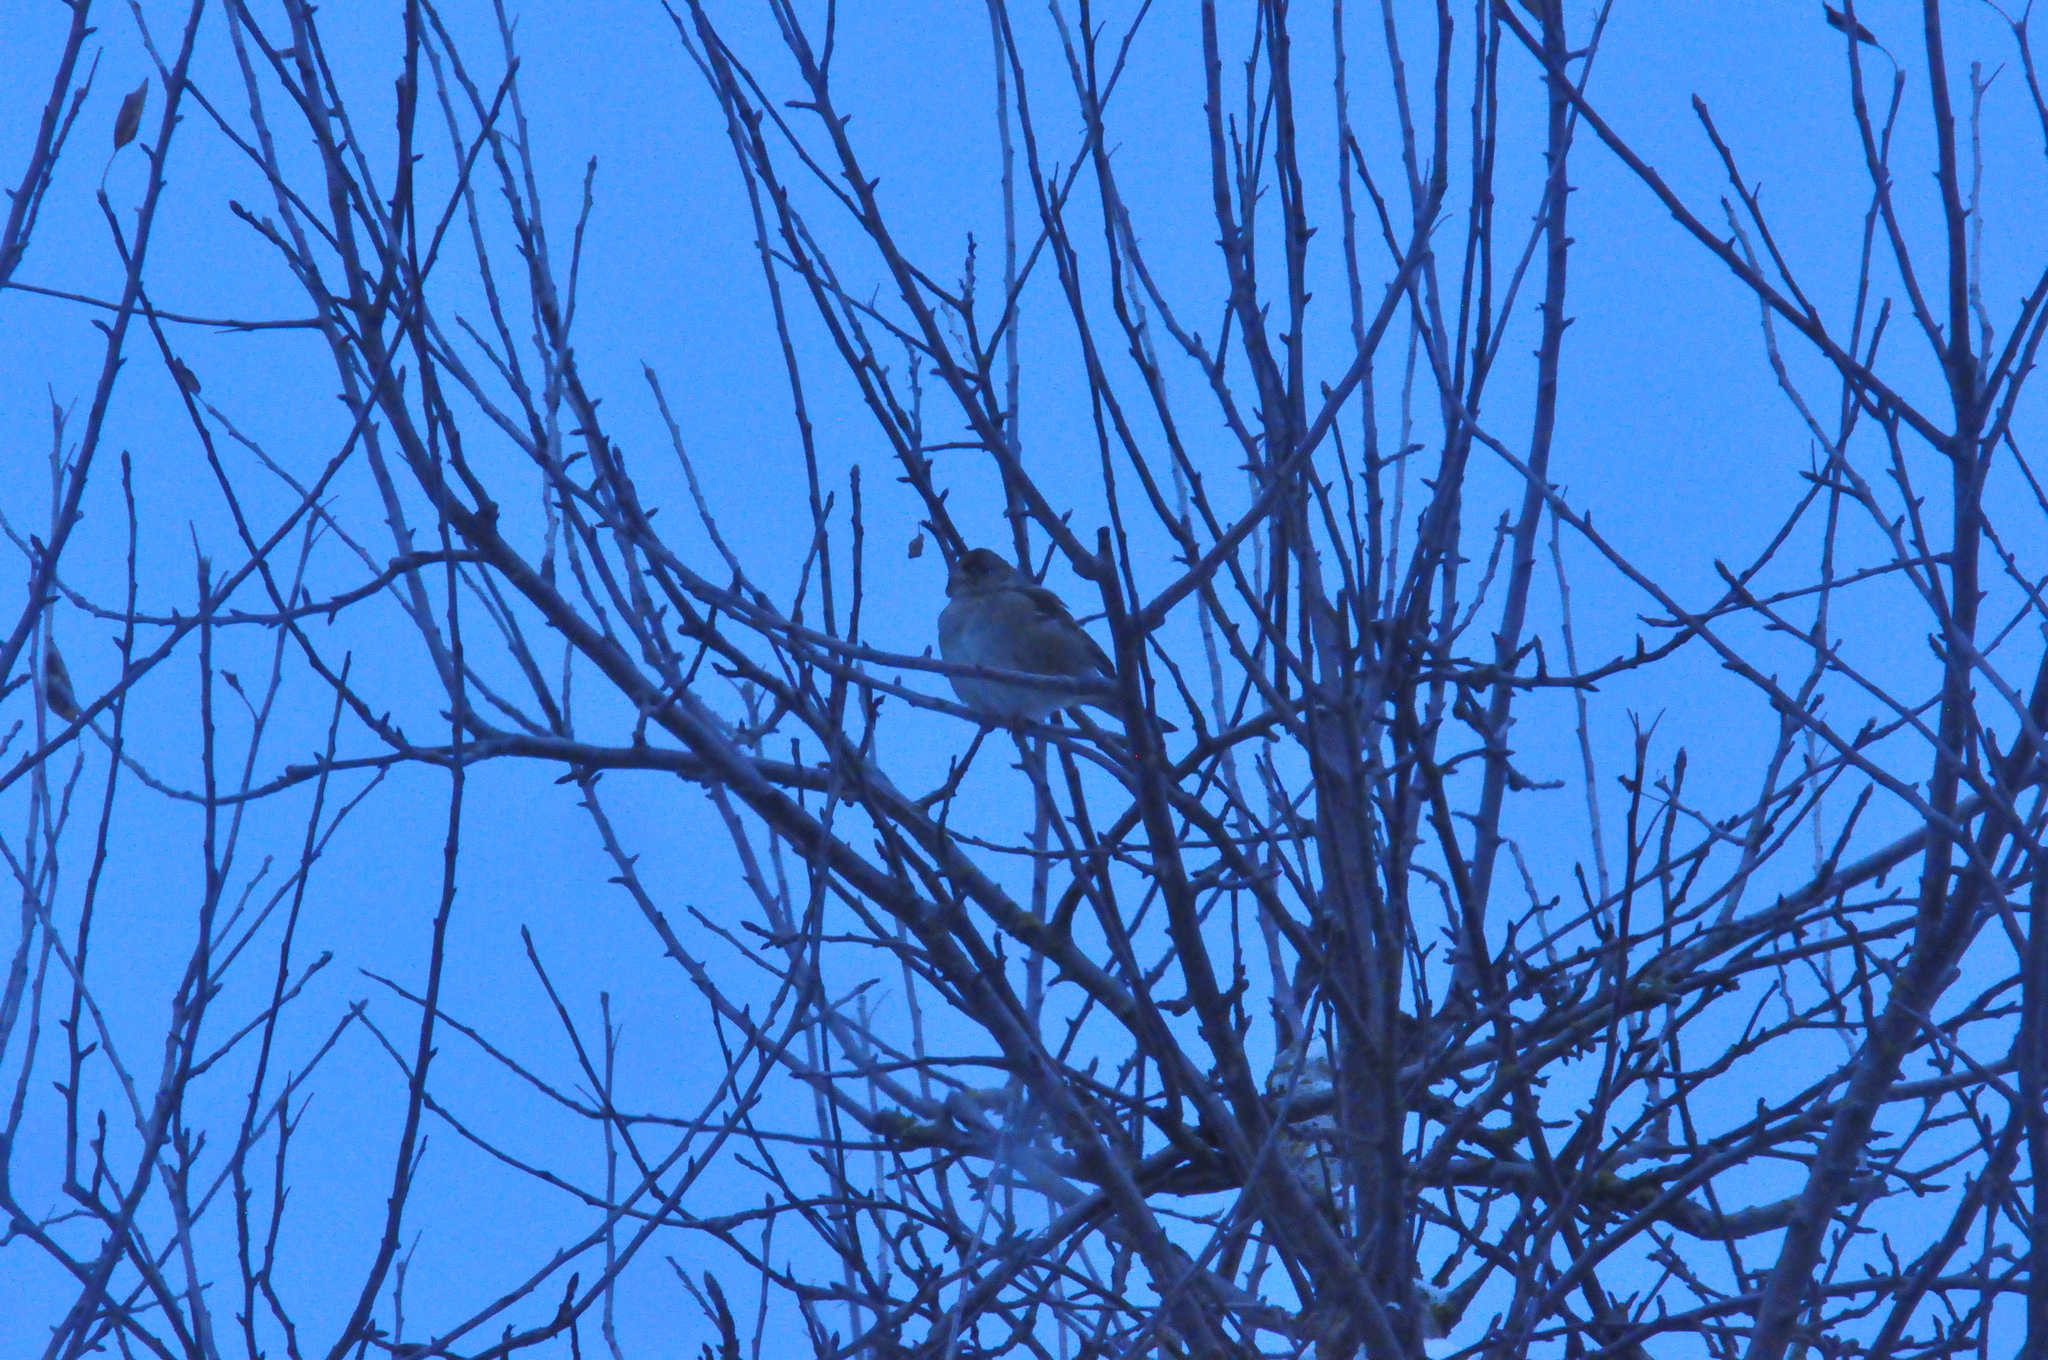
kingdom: Animalia
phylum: Chordata
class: Aves
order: Passeriformes
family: Passerellidae
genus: Zonotrichia
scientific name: Zonotrichia atricapilla
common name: Golden-crowned sparrow
